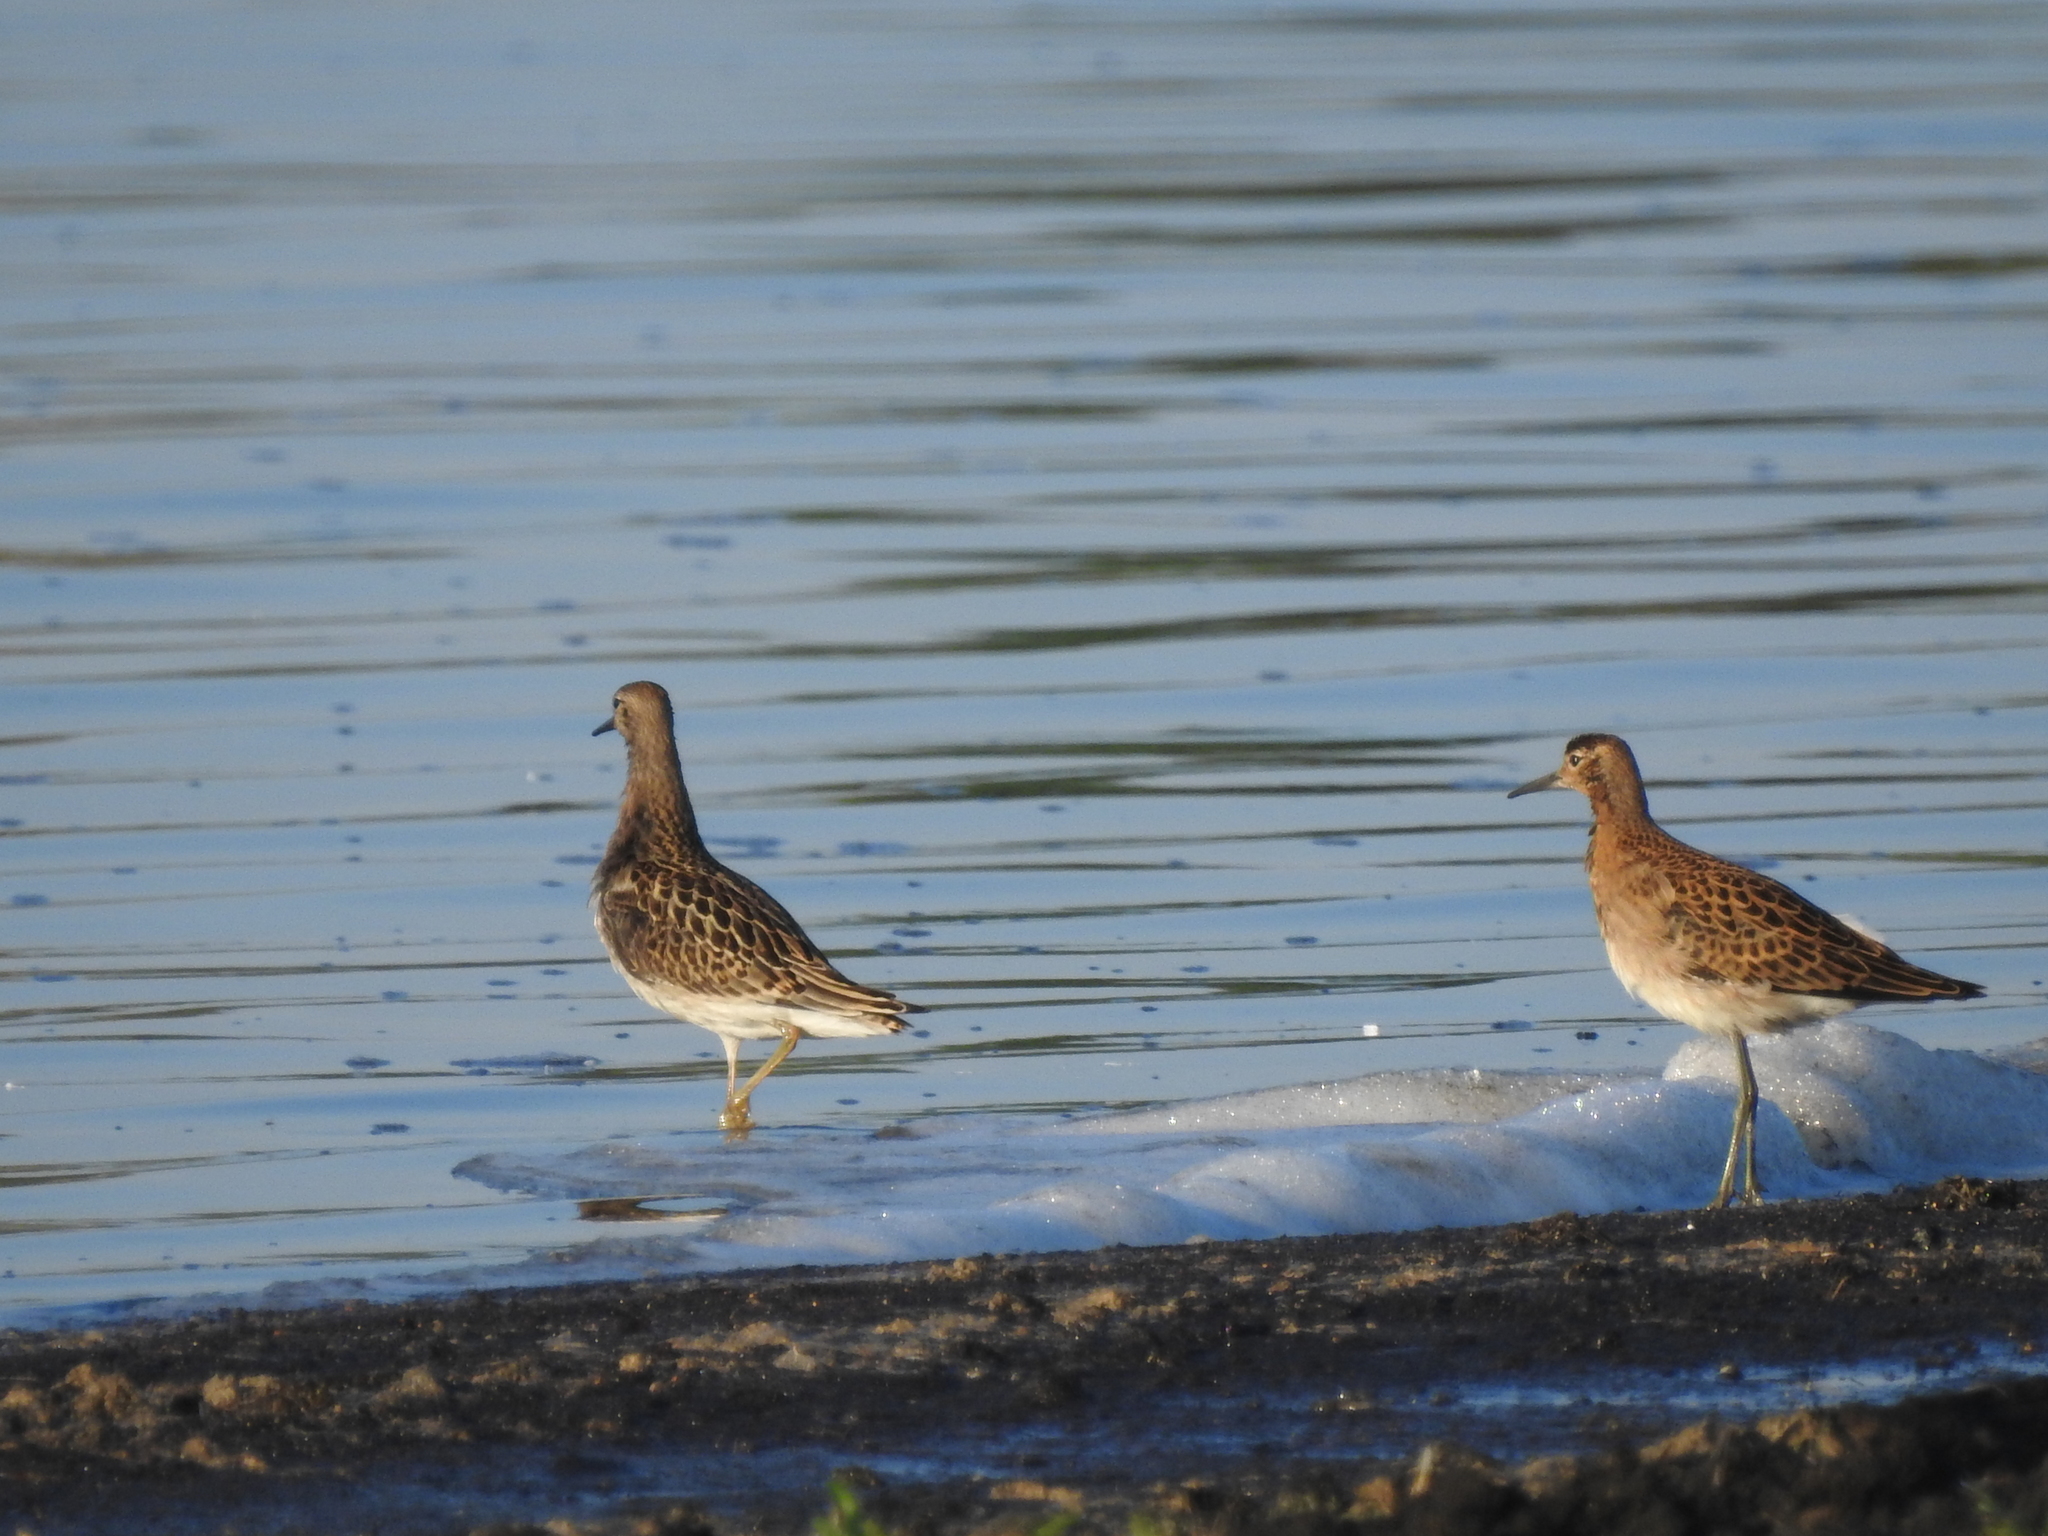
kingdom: Animalia
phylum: Chordata
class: Aves
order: Charadriiformes
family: Scolopacidae
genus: Calidris
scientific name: Calidris pugnax
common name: Ruff
